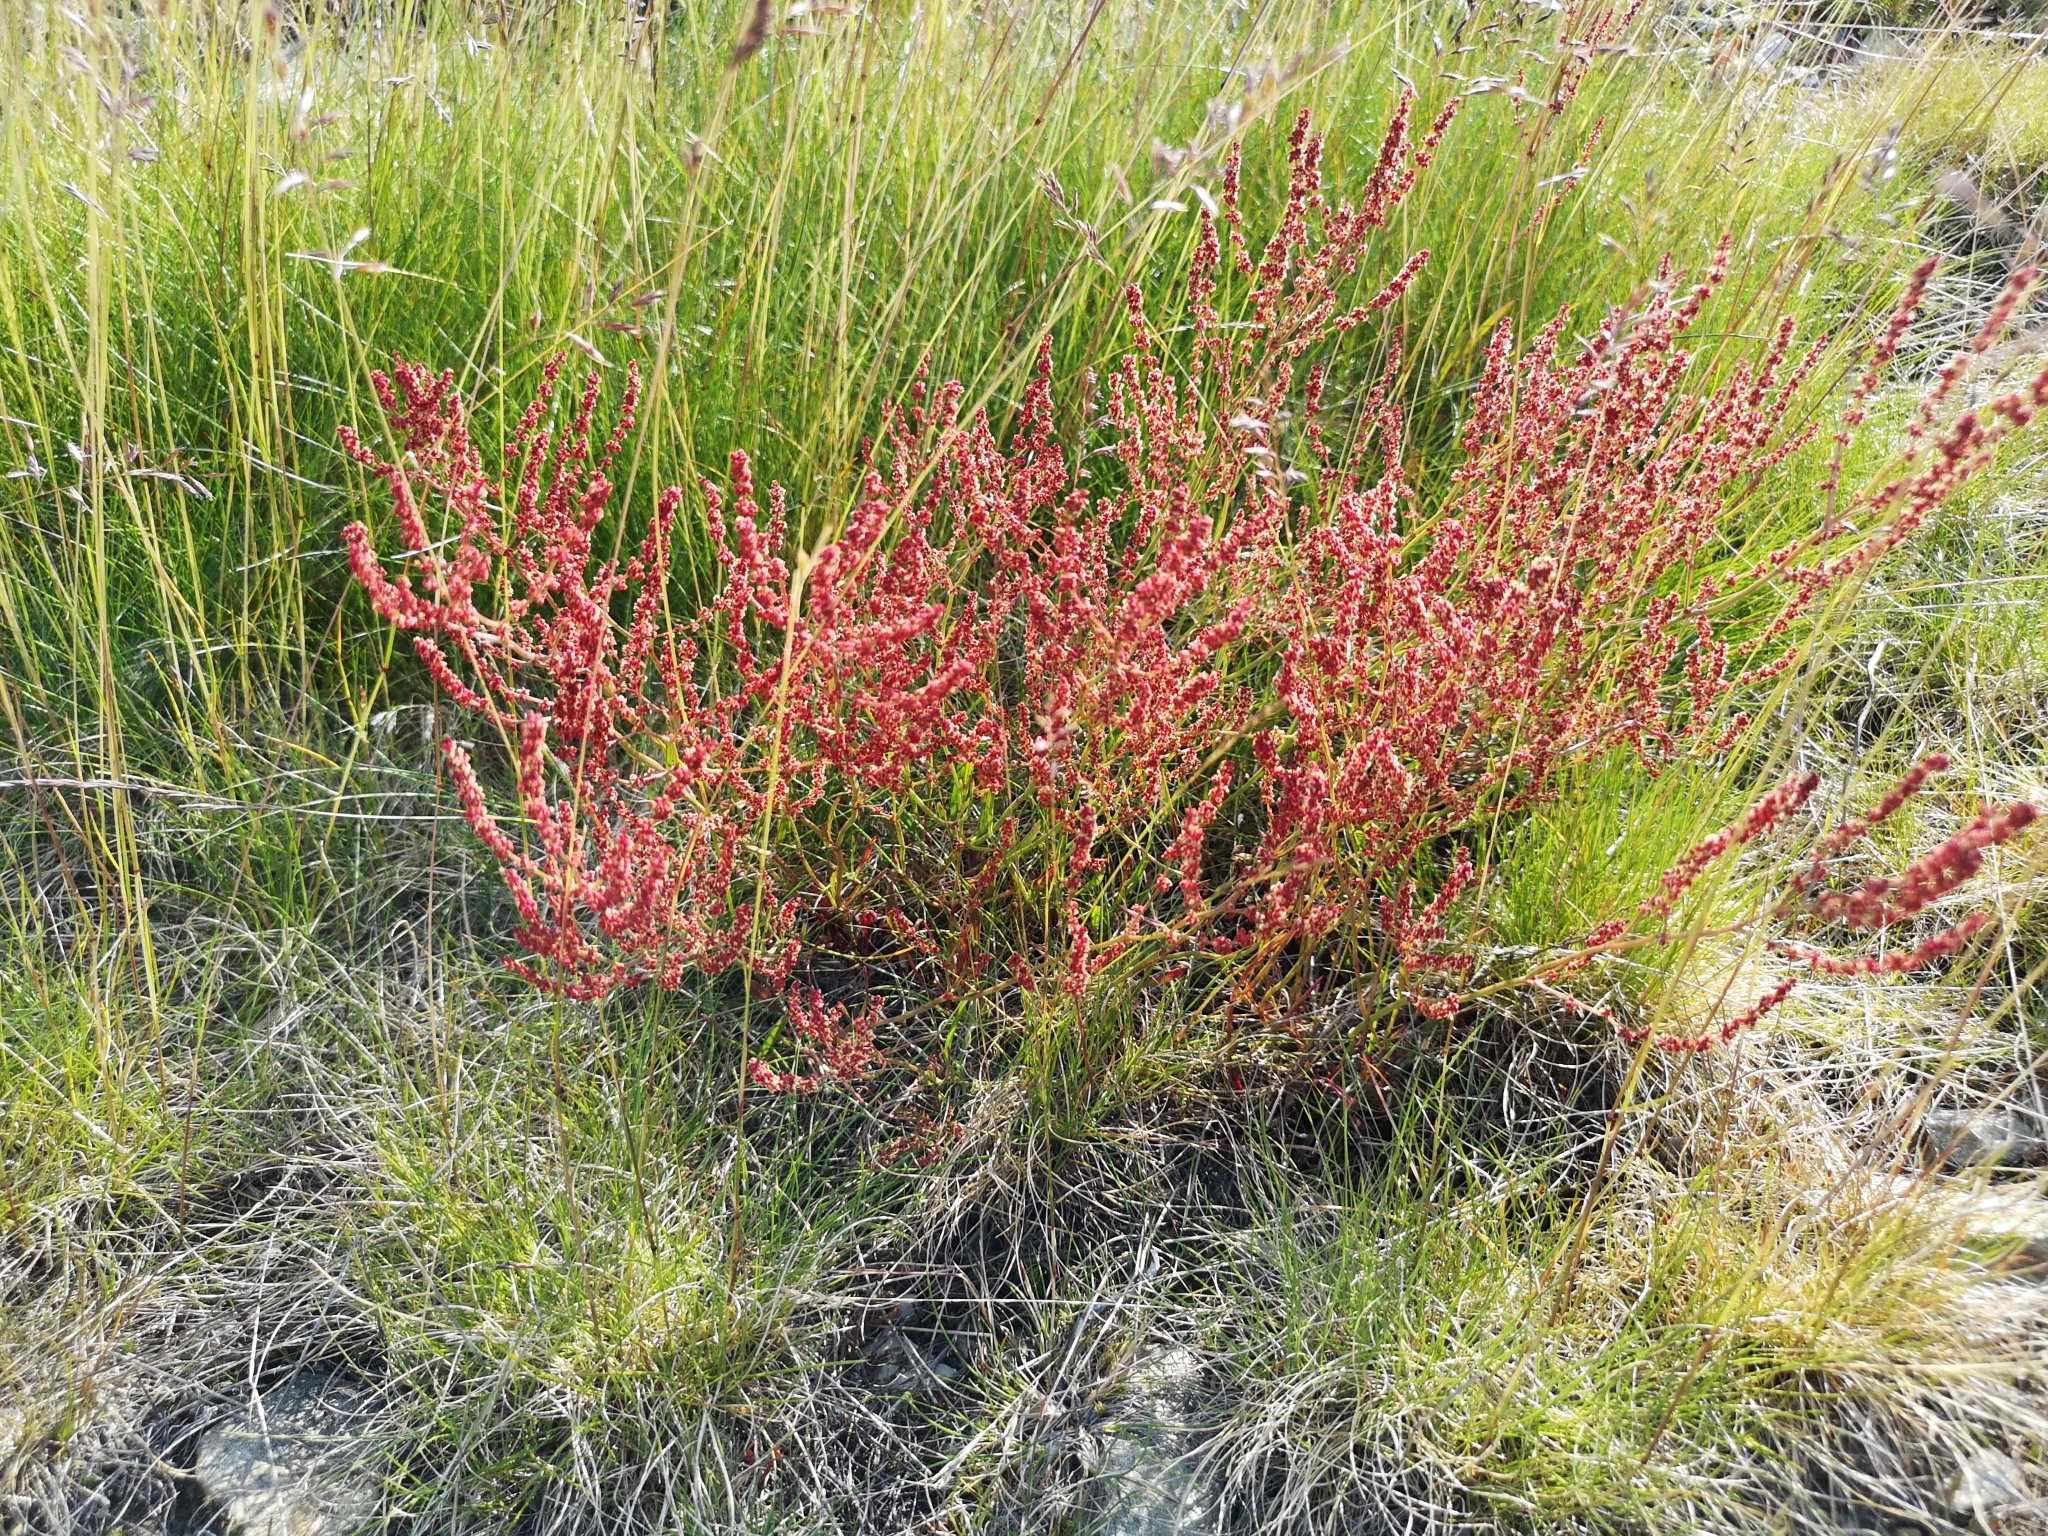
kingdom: Plantae
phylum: Tracheophyta
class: Magnoliopsida
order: Caryophyllales
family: Polygonaceae
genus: Rumex
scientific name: Rumex acetosella
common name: Common sheep sorrel
